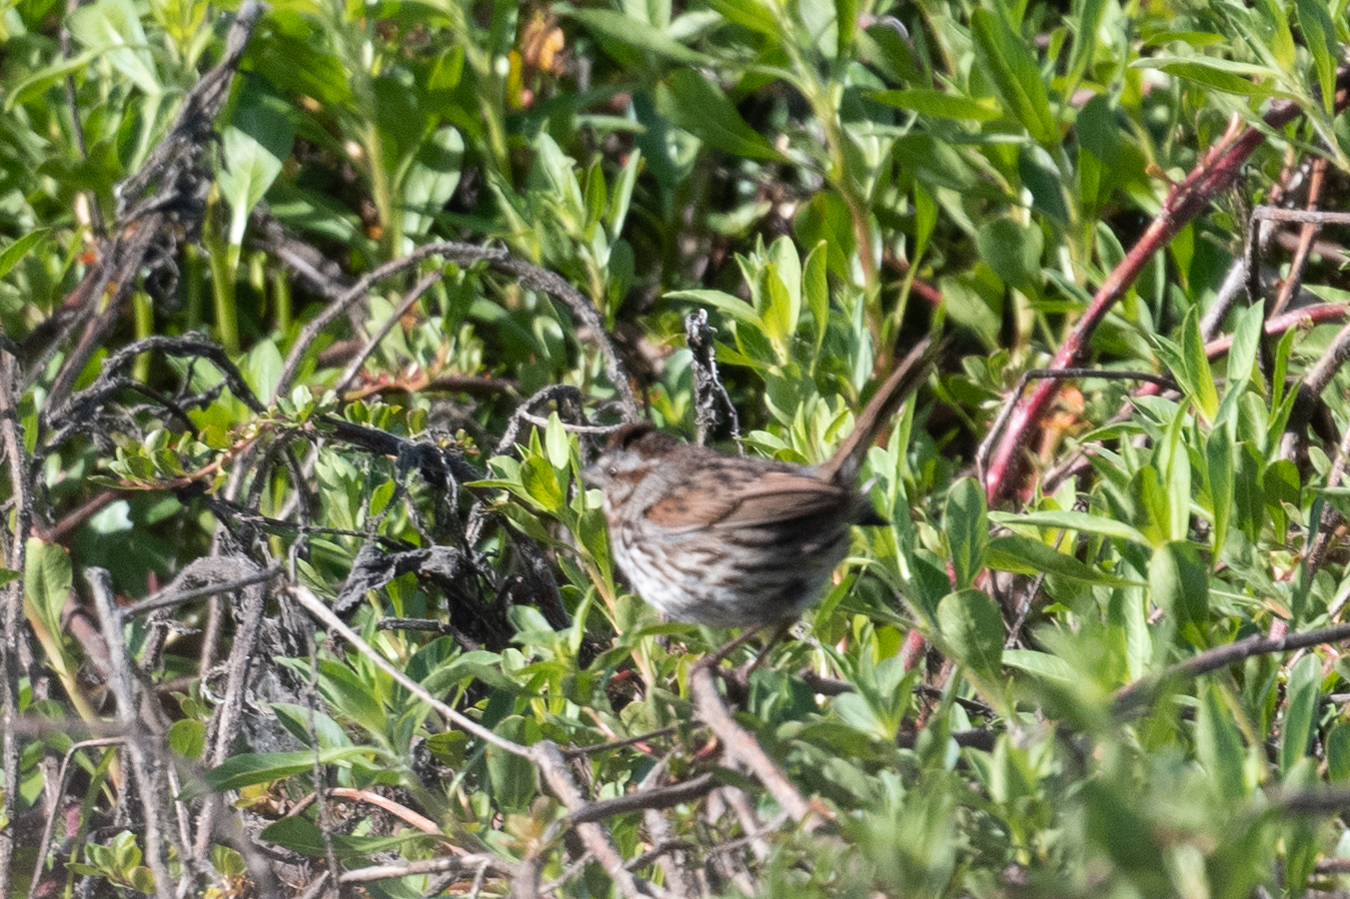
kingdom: Animalia
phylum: Chordata
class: Aves
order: Passeriformes
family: Passerellidae
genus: Melospiza
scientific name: Melospiza melodia
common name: Song sparrow
